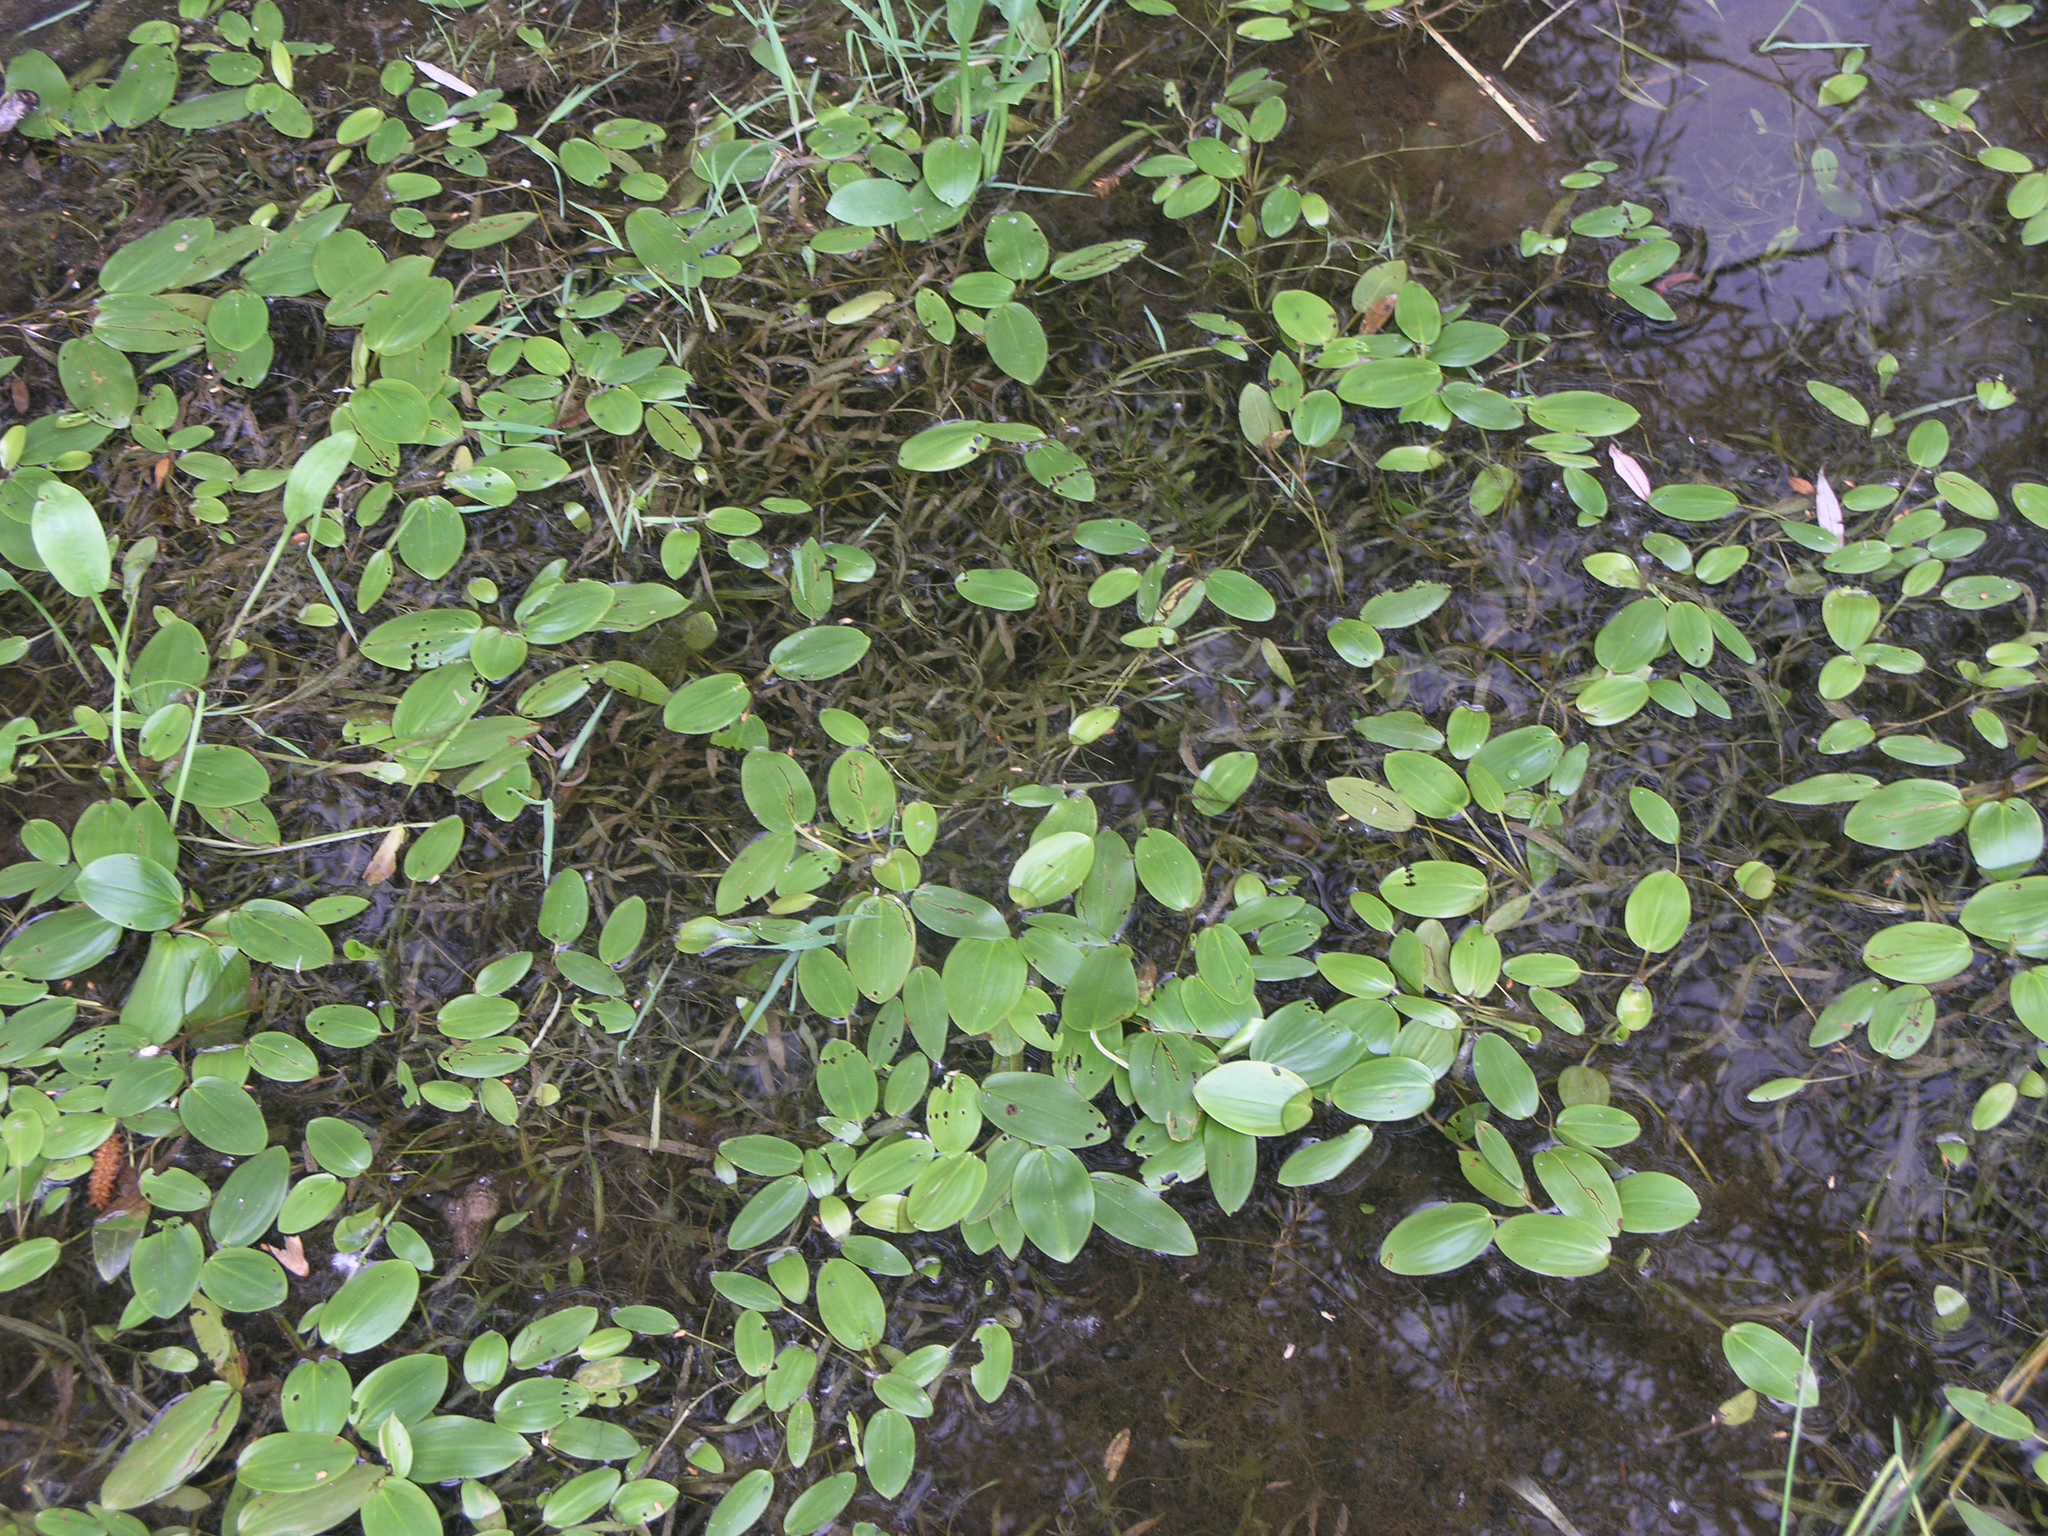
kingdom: Plantae
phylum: Tracheophyta
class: Liliopsida
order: Alismatales
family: Potamogetonaceae
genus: Potamogeton
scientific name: Potamogeton gramineus
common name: Various-leaved pondweed
